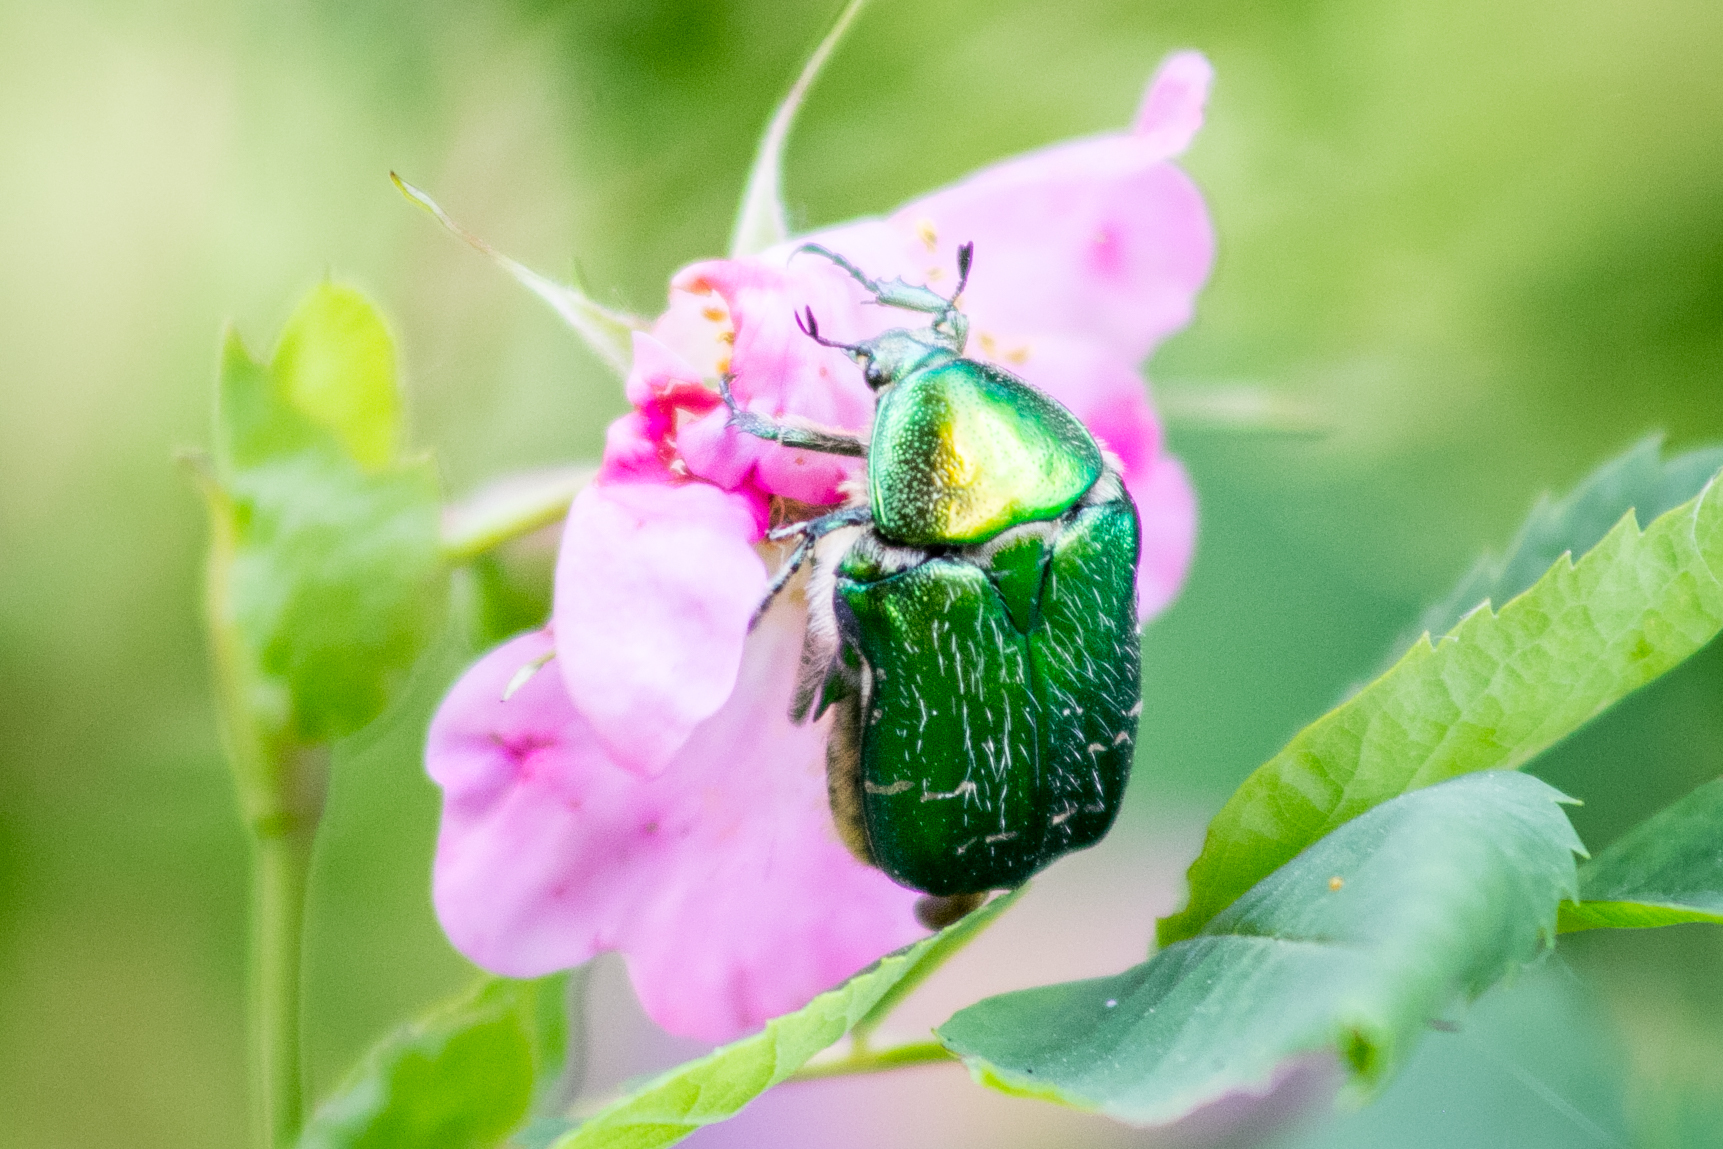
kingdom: Animalia
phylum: Arthropoda
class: Insecta
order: Coleoptera
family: Scarabaeidae
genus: Cetonia
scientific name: Cetonia aurata
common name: Rose chafer
